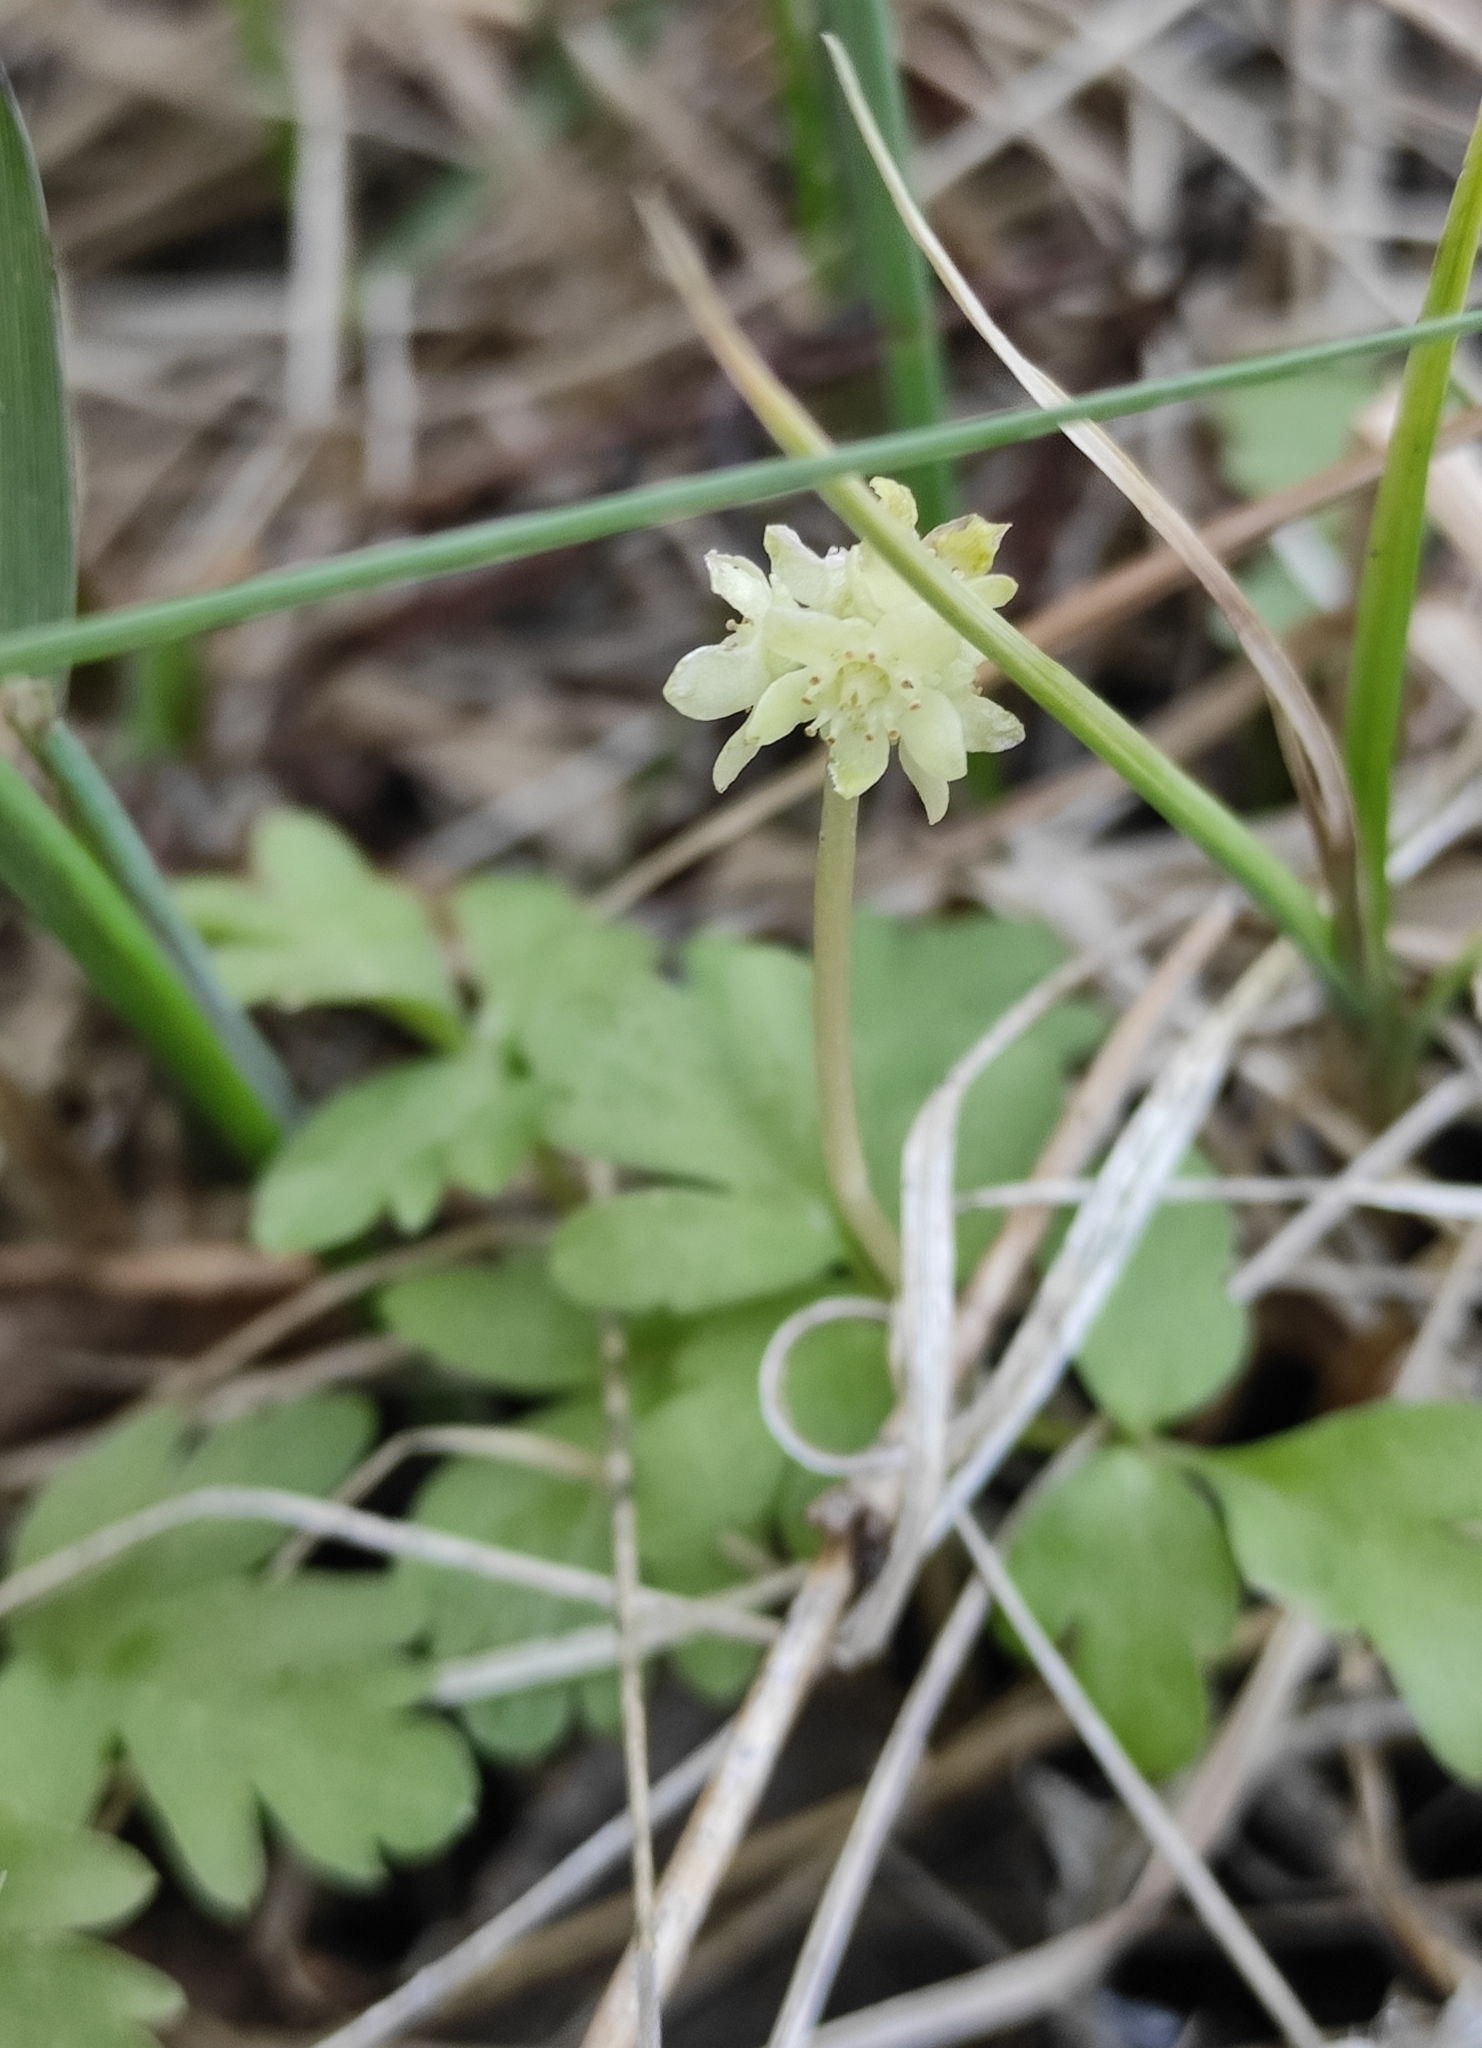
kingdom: Plantae
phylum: Tracheophyta
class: Magnoliopsida
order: Dipsacales
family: Viburnaceae
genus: Adoxa
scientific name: Adoxa moschatellina
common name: Moschatel
